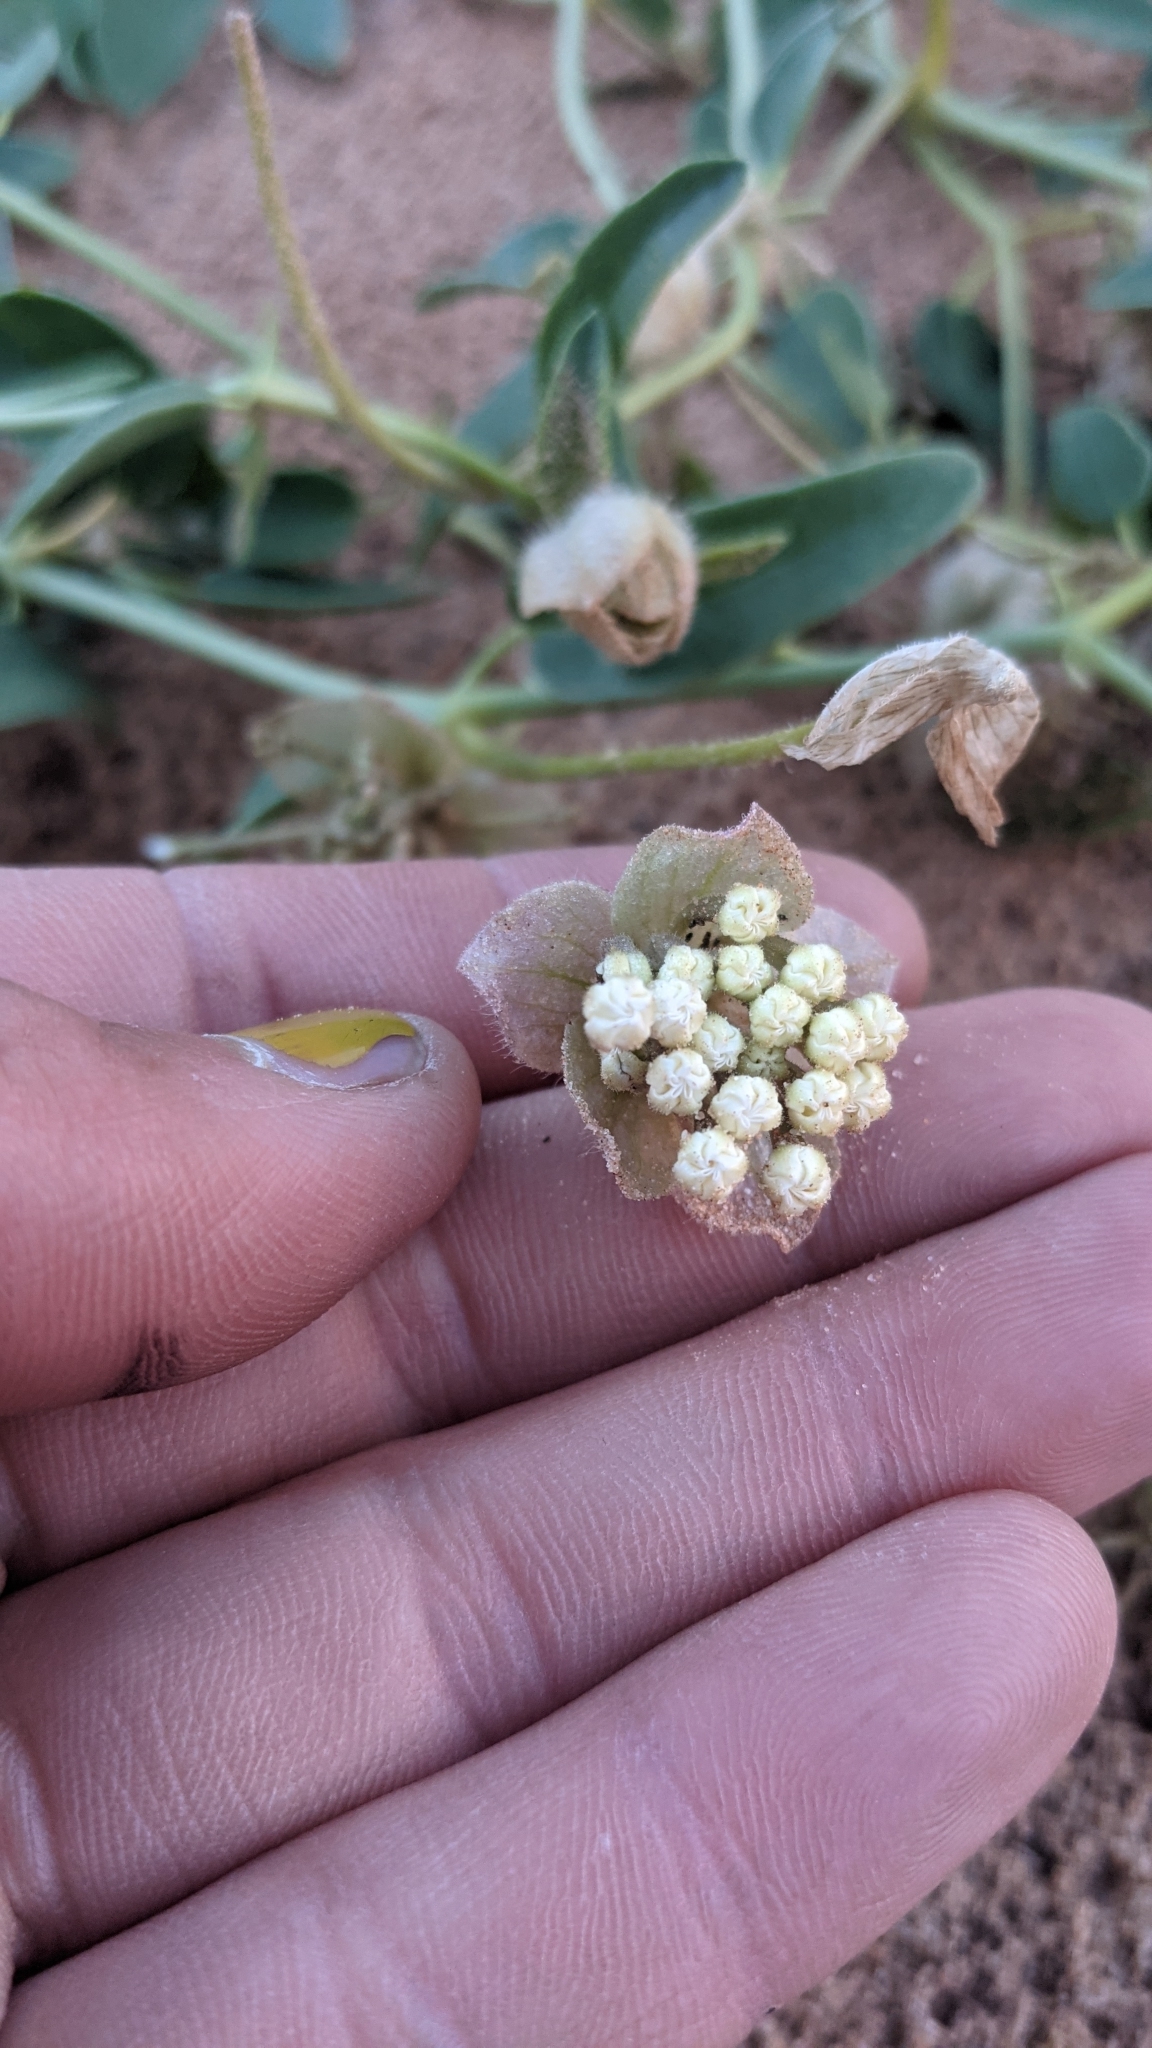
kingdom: Plantae
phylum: Tracheophyta
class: Magnoliopsida
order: Caryophyllales
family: Nyctaginaceae
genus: Abronia
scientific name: Abronia elliptica
